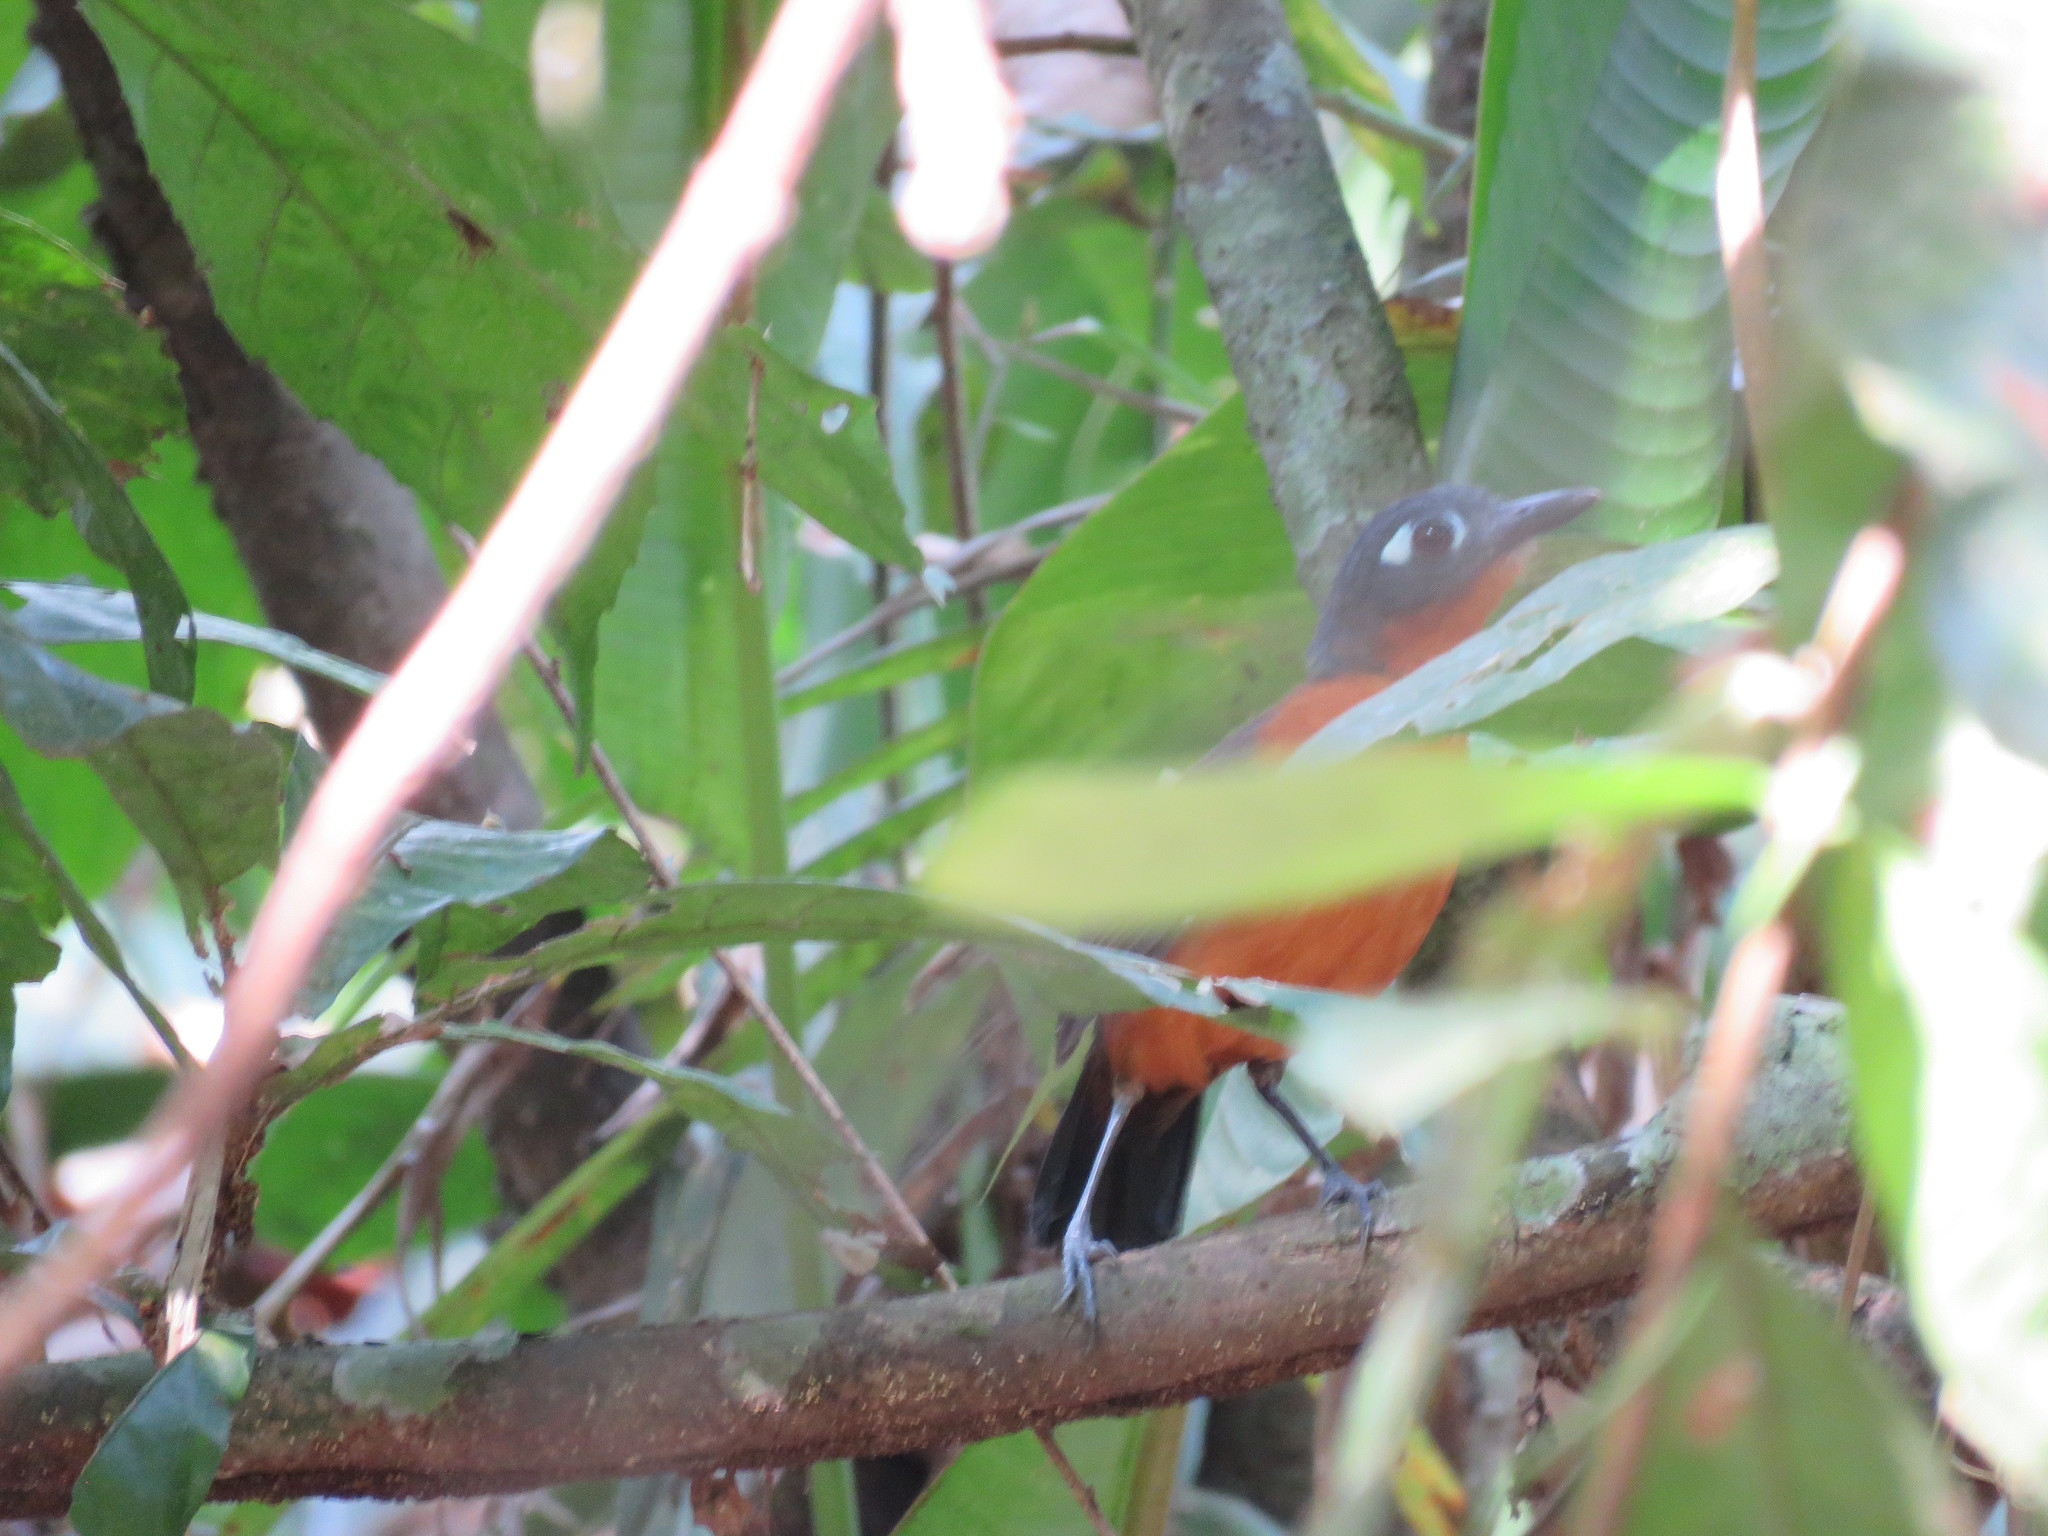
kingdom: Animalia
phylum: Chordata
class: Aves
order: Passeriformes
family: Thamnophilidae
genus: Myrmeciza
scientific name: Myrmeciza hyperythra
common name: Plumbeous antbird
